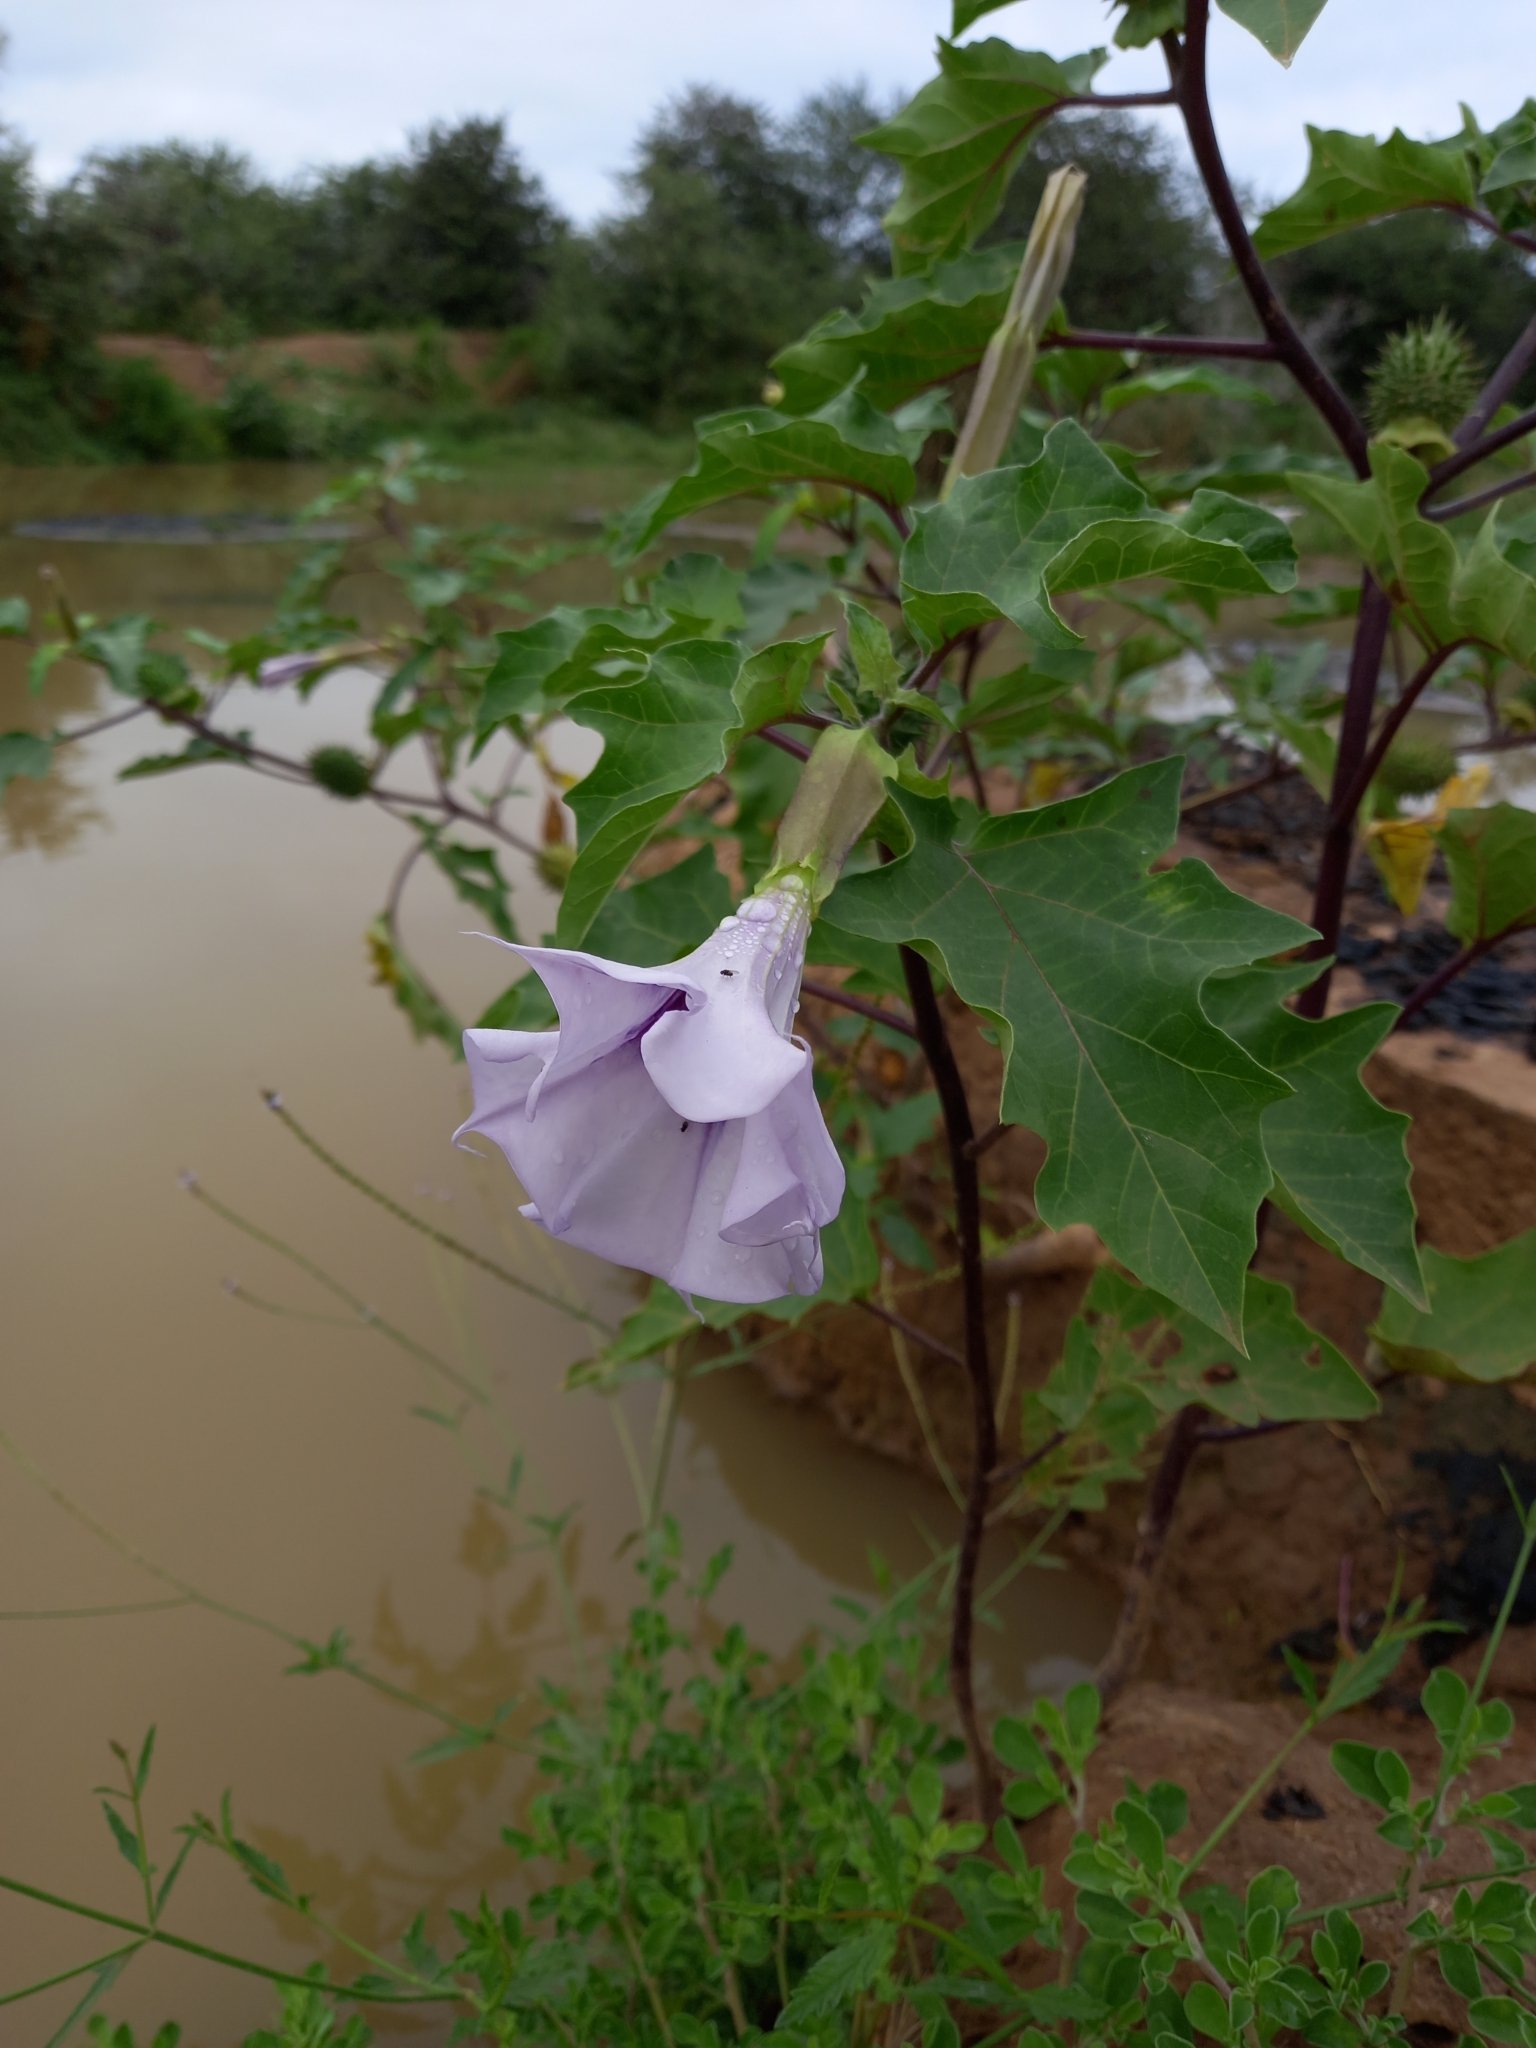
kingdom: Plantae
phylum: Tracheophyta
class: Magnoliopsida
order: Solanales
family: Solanaceae
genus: Datura
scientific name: Datura stramonium
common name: Thorn-apple
